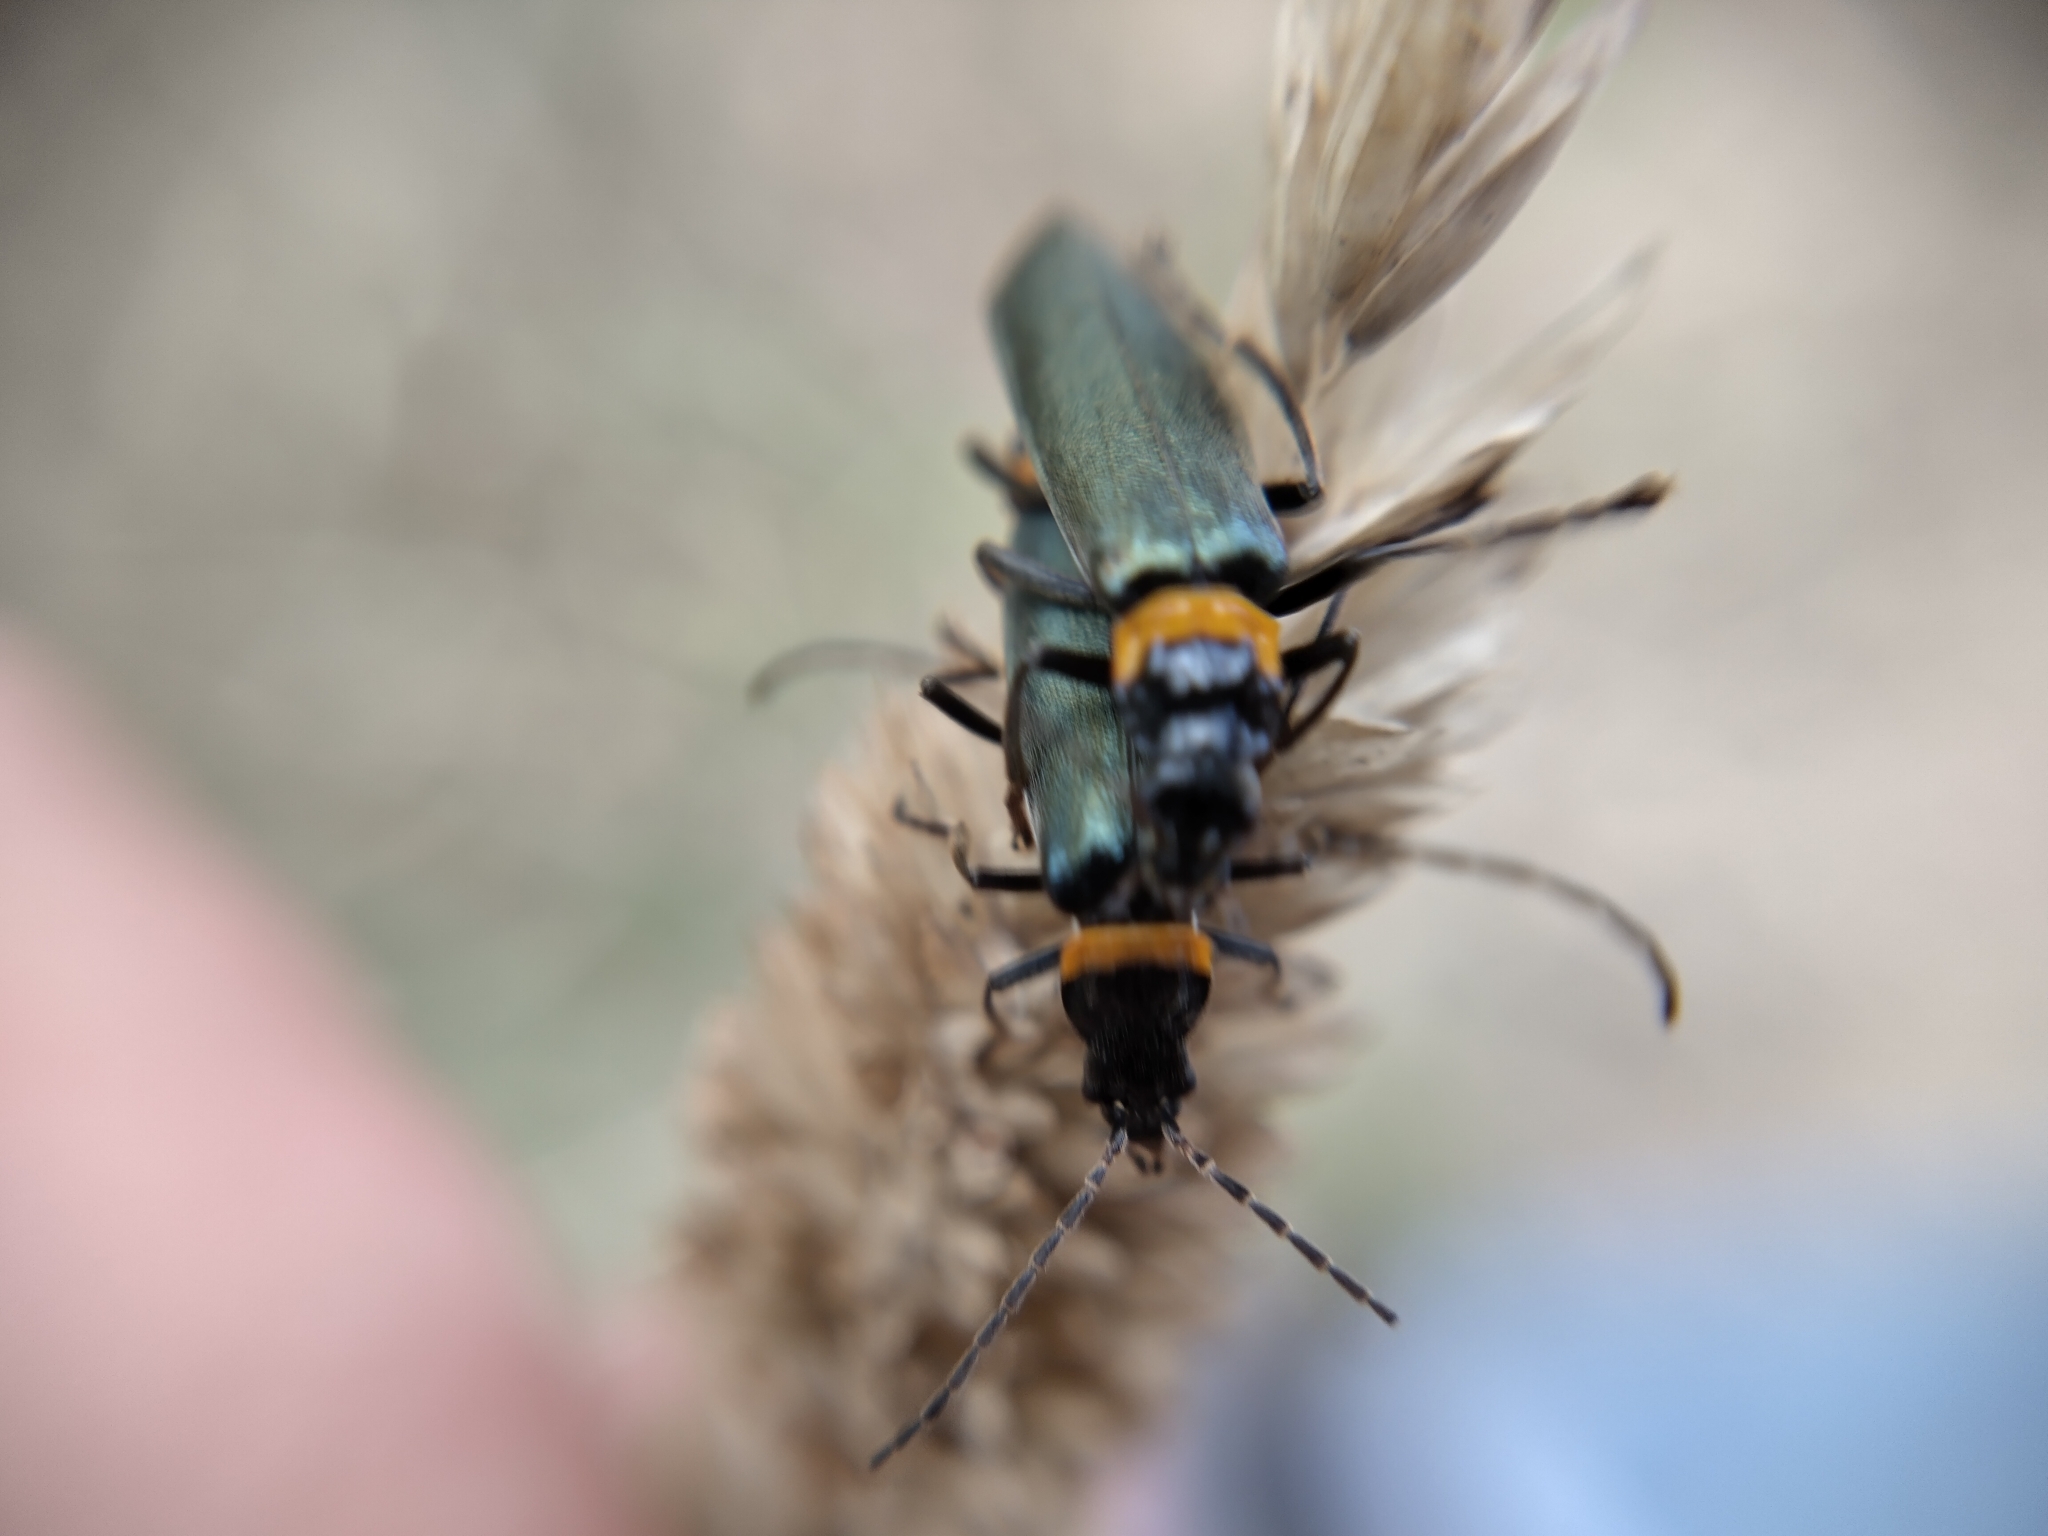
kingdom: Animalia
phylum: Arthropoda
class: Insecta
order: Coleoptera
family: Cantharidae
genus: Chauliognathus
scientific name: Chauliognathus
